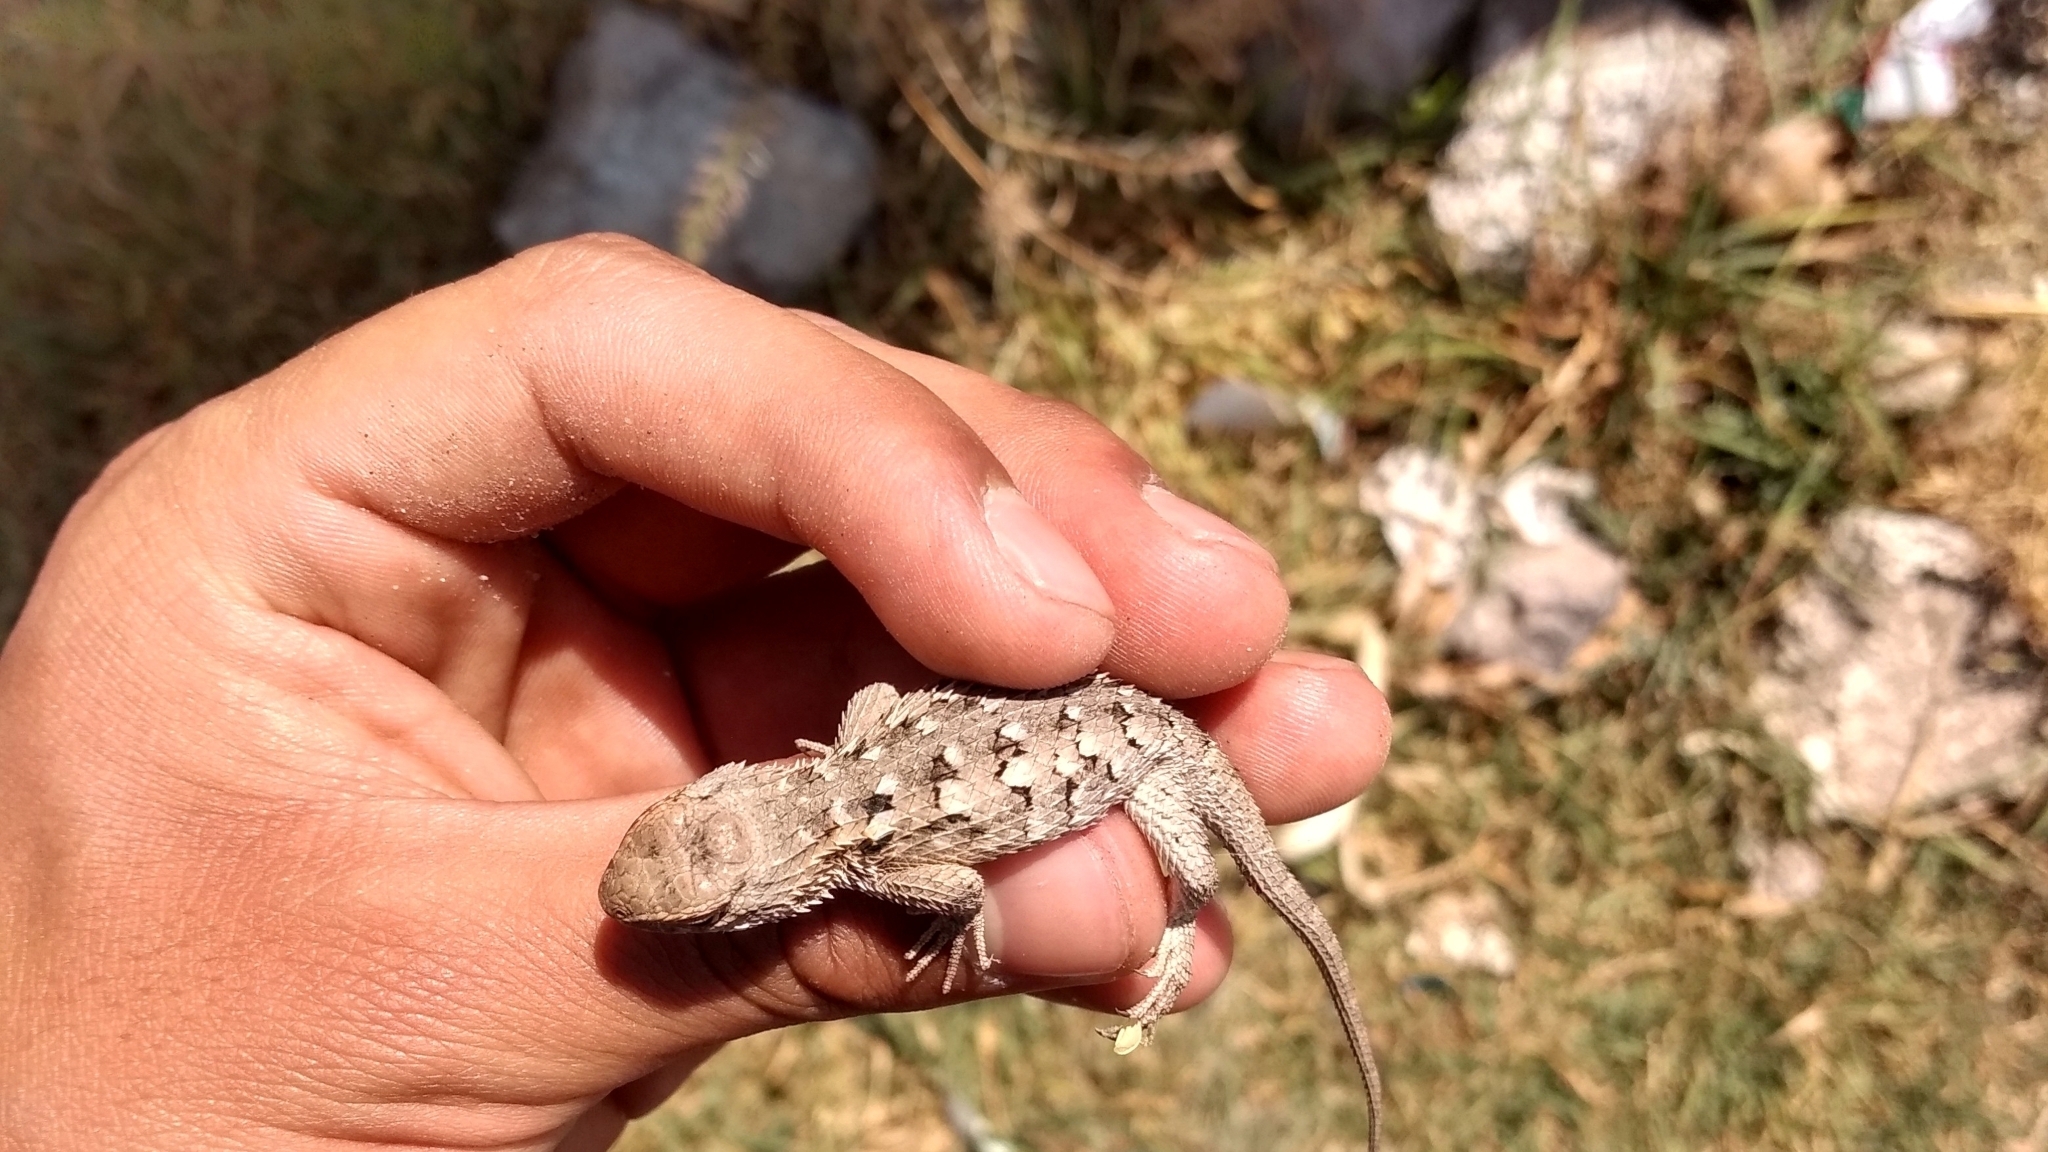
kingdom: Animalia
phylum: Chordata
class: Squamata
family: Phrynosomatidae
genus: Sceloporus
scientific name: Sceloporus spinosus
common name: Blue-spotted spiny lizard [caeruleopunctatus]
